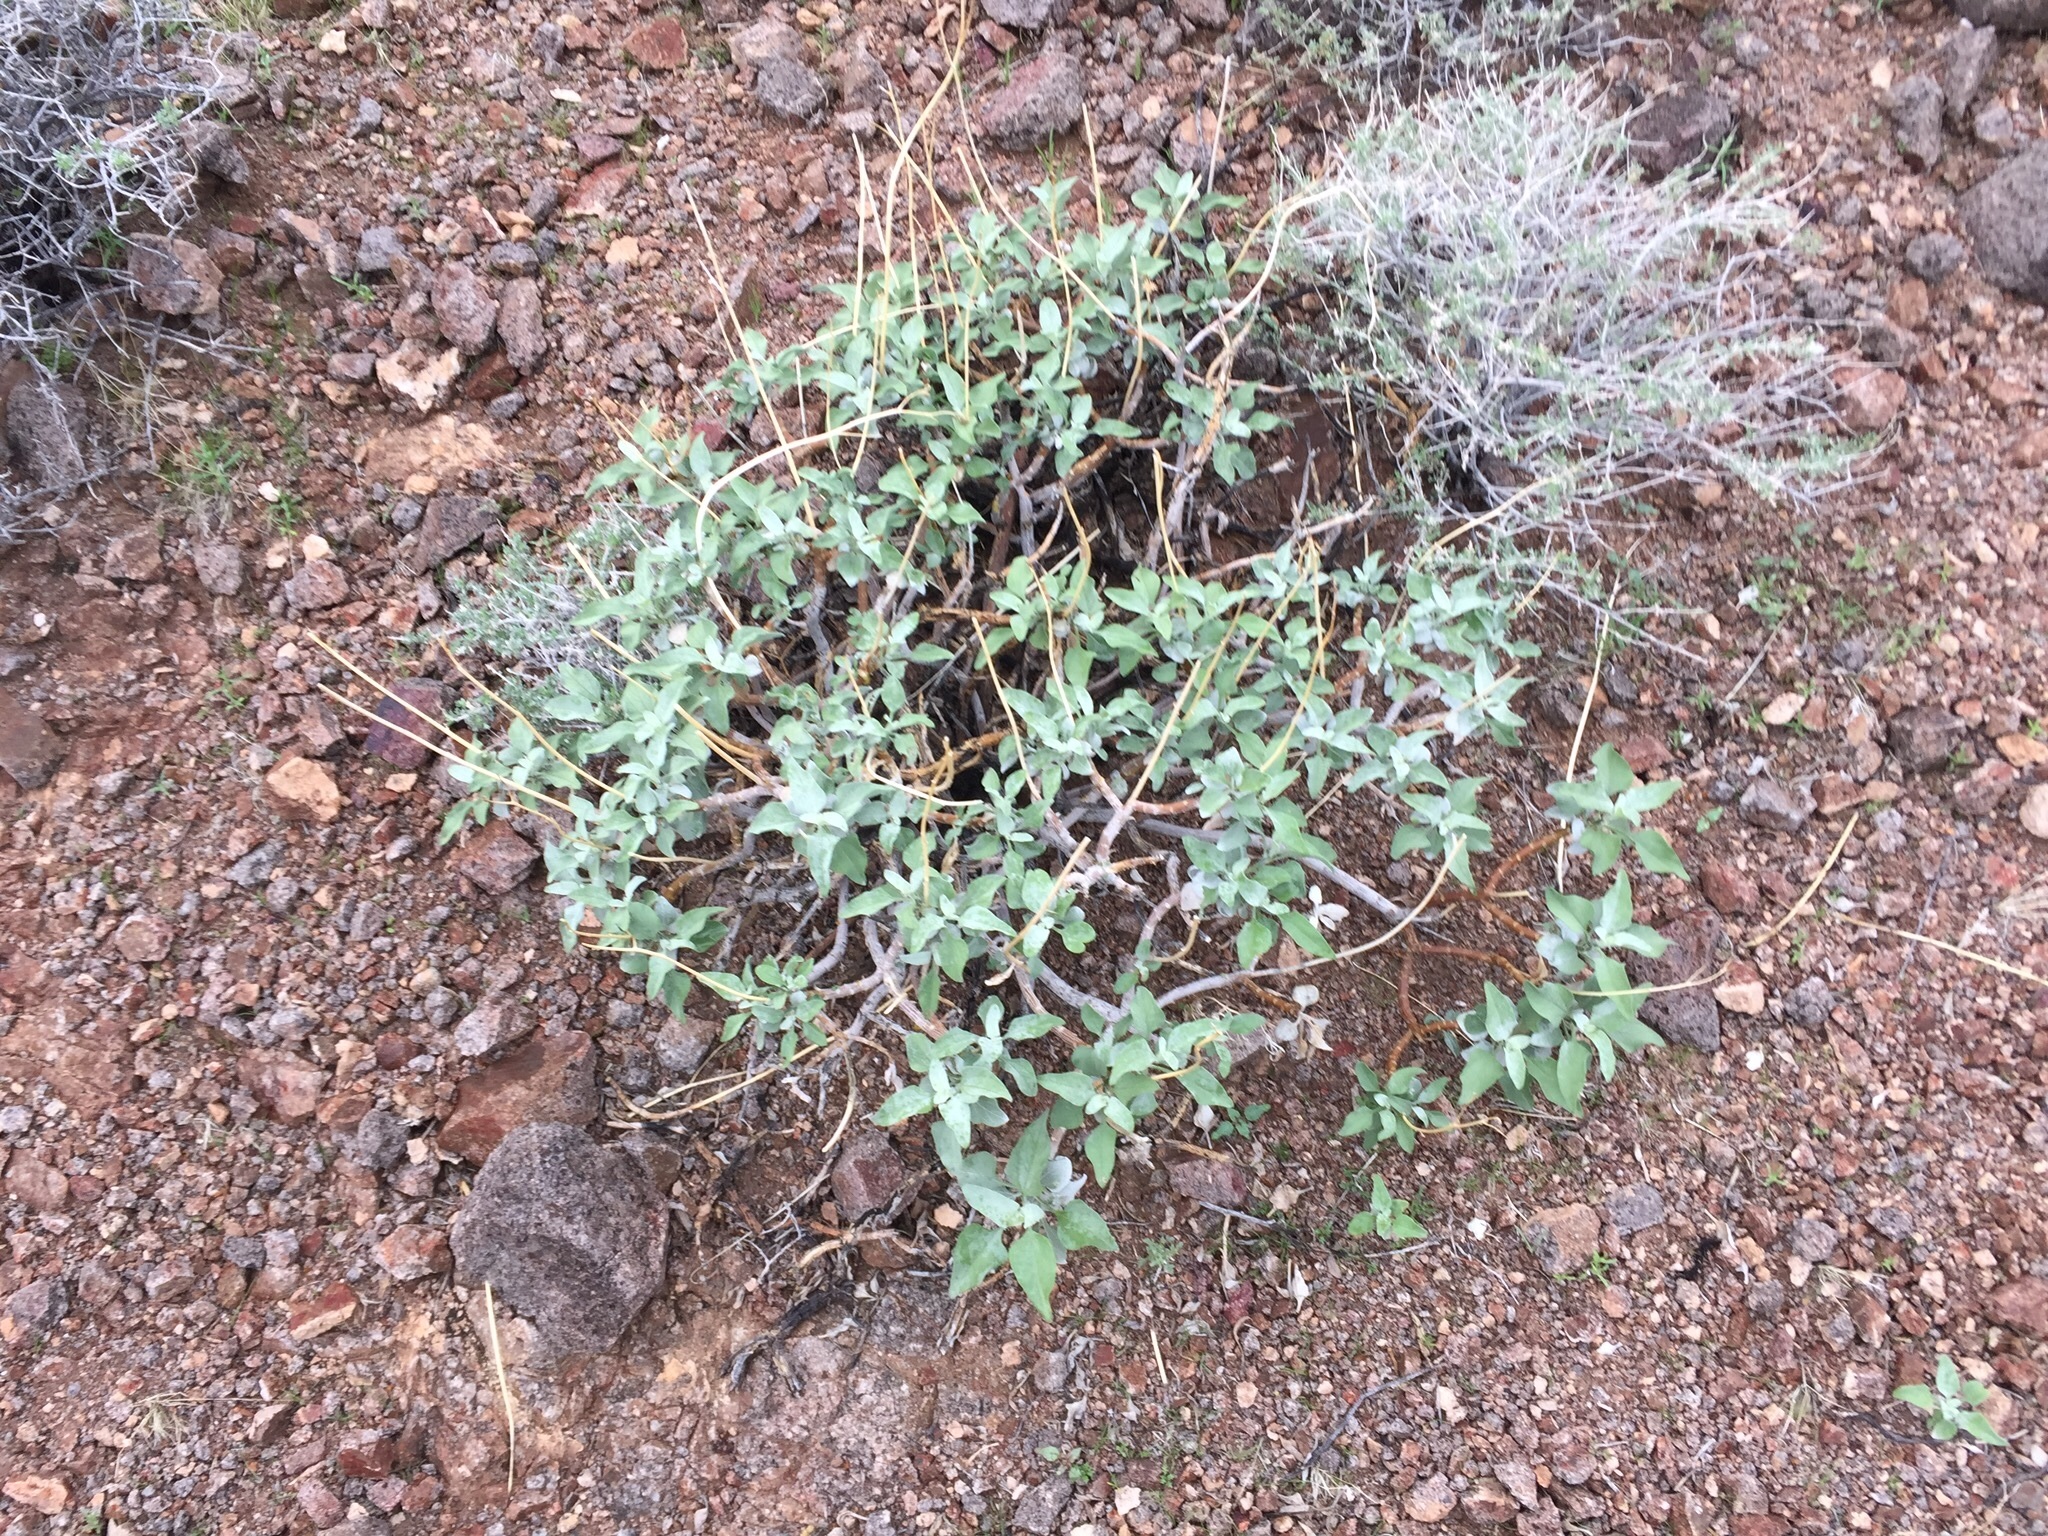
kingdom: Plantae
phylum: Tracheophyta
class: Magnoliopsida
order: Asterales
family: Asteraceae
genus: Encelia
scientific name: Encelia farinosa
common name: Brittlebush
